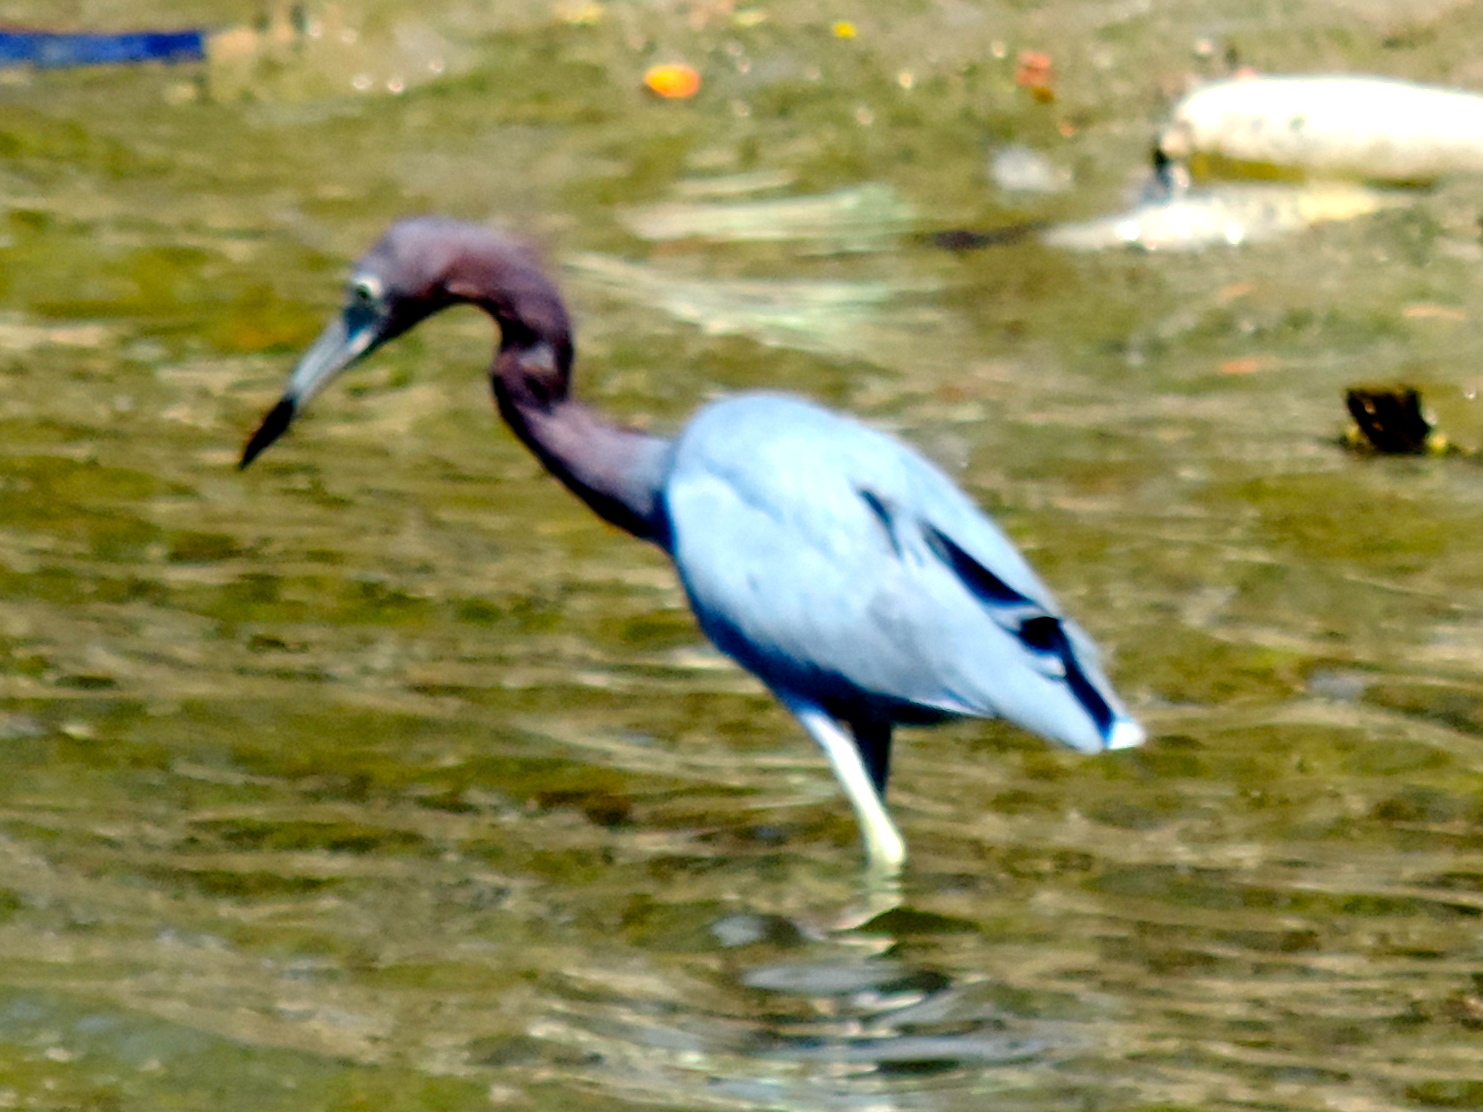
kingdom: Animalia
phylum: Chordata
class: Aves
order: Pelecaniformes
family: Ardeidae
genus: Egretta
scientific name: Egretta caerulea
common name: Little blue heron
